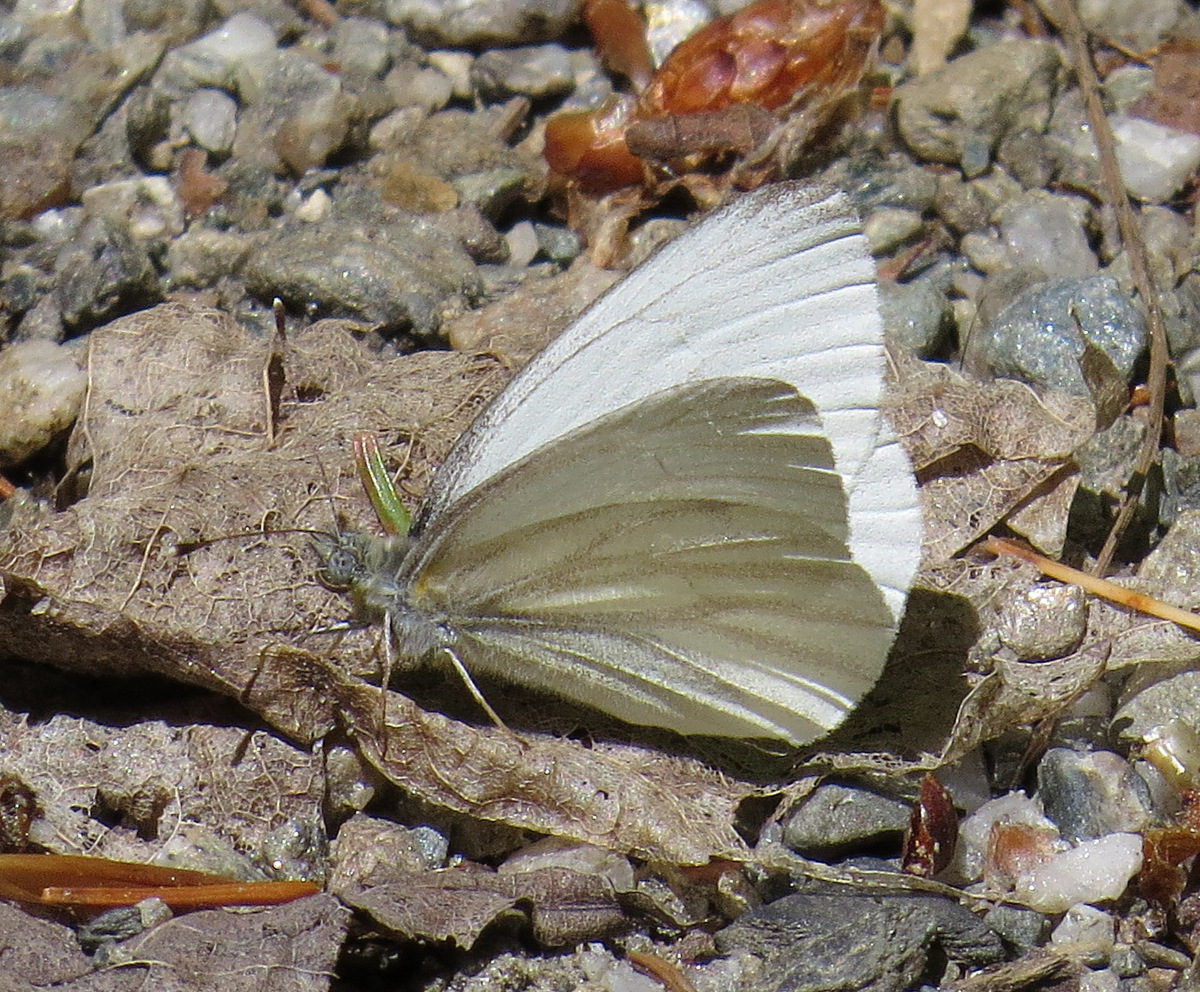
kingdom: Animalia
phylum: Arthropoda
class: Insecta
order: Lepidoptera
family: Pieridae
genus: Pieris
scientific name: Pieris virginiensis
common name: West virginia white
